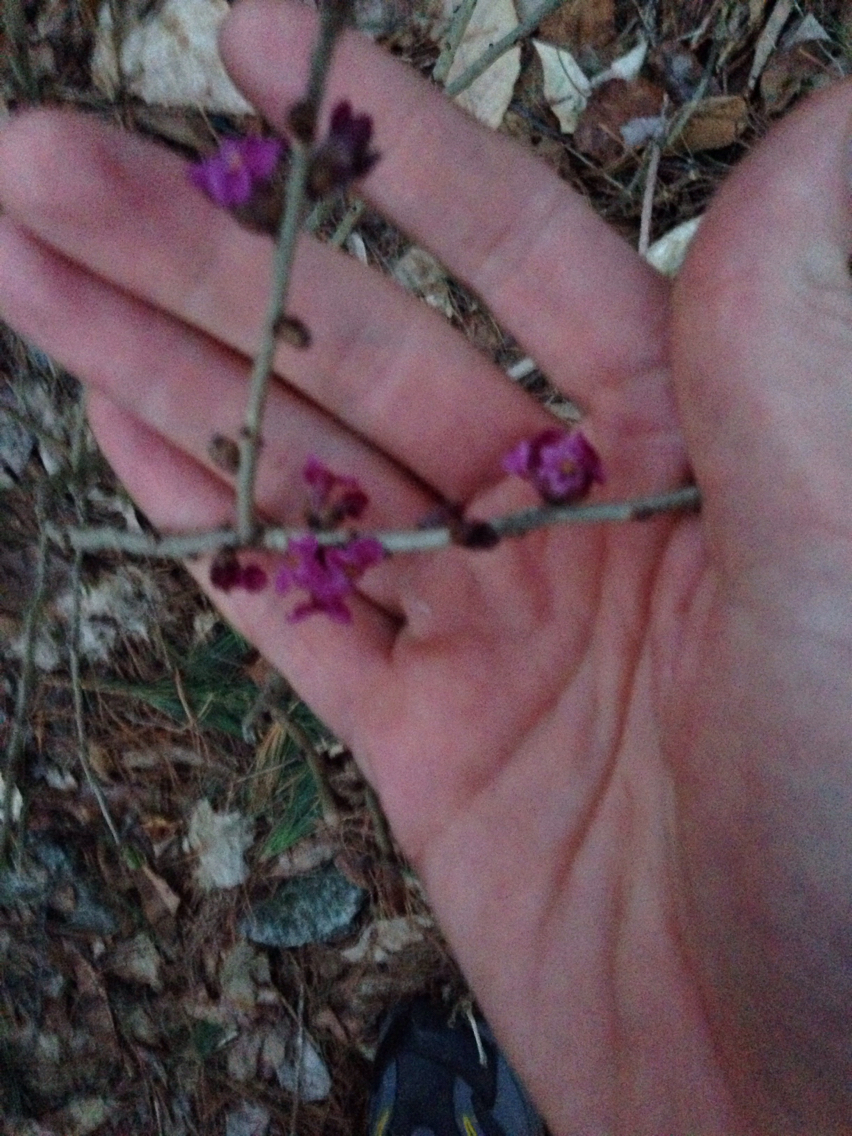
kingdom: Plantae
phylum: Tracheophyta
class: Magnoliopsida
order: Malvales
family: Thymelaeaceae
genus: Daphne
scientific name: Daphne mezereum
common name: Mezereon
